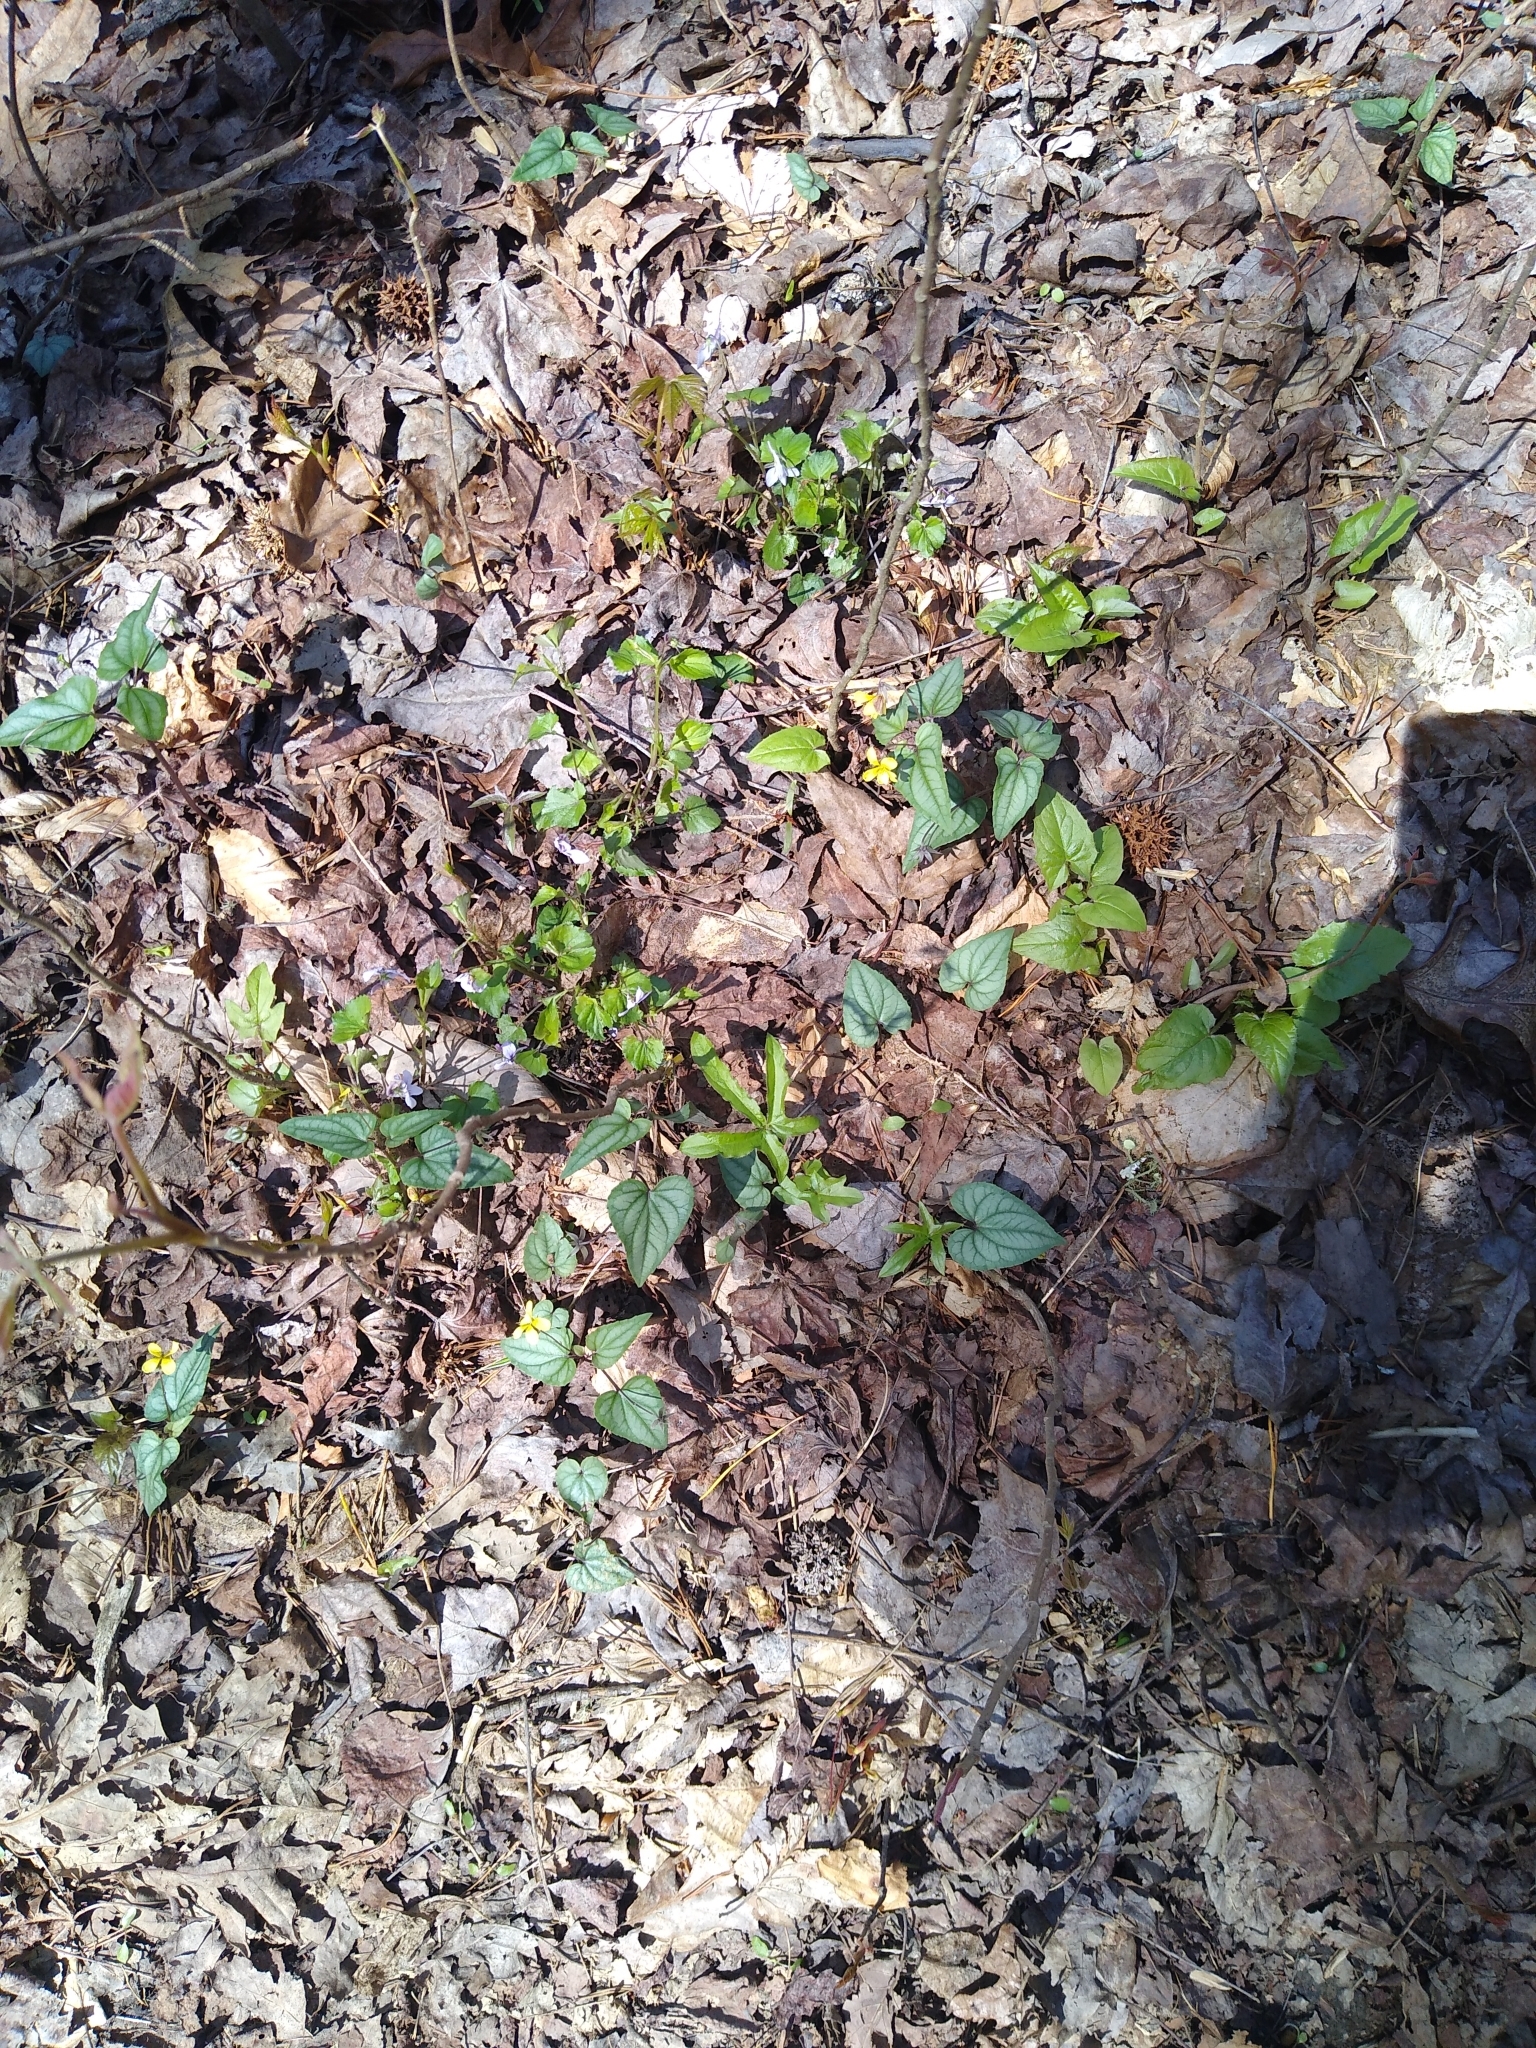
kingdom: Plantae
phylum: Tracheophyta
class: Magnoliopsida
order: Malpighiales
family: Violaceae
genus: Viola
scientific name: Viola hastata
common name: Spear-leaf violet
